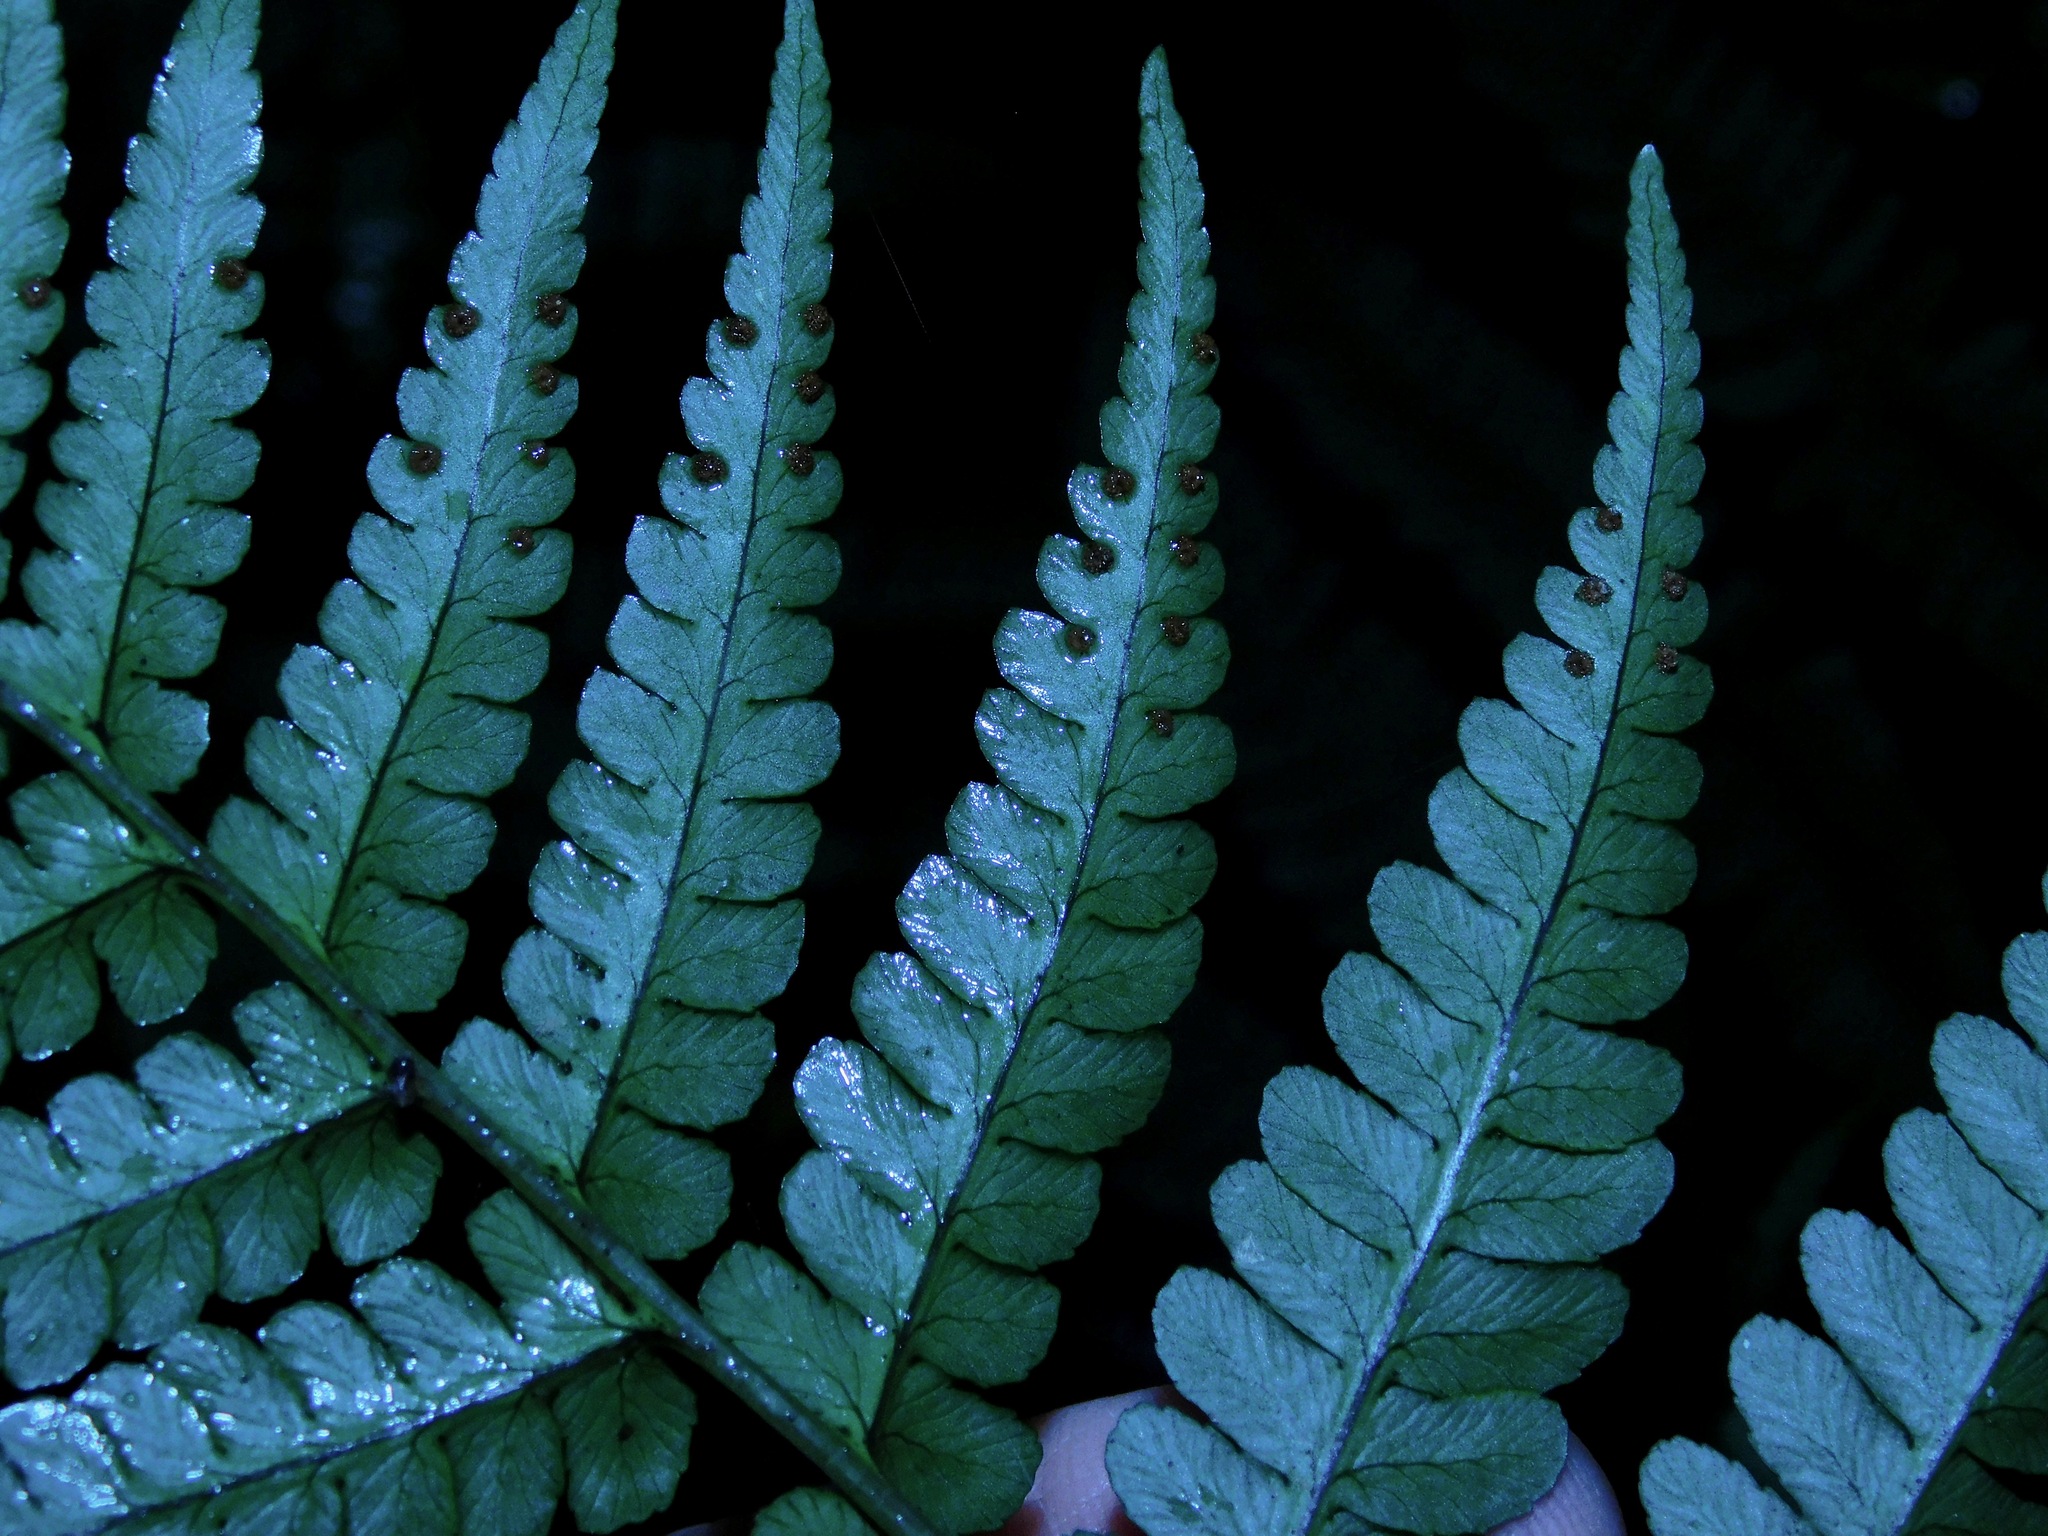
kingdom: Plantae
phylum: Tracheophyta
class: Polypodiopsida
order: Polypodiales
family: Dryopteridaceae
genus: Dryopteris
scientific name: Dryopteris marginalis
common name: Marginal wood fern
